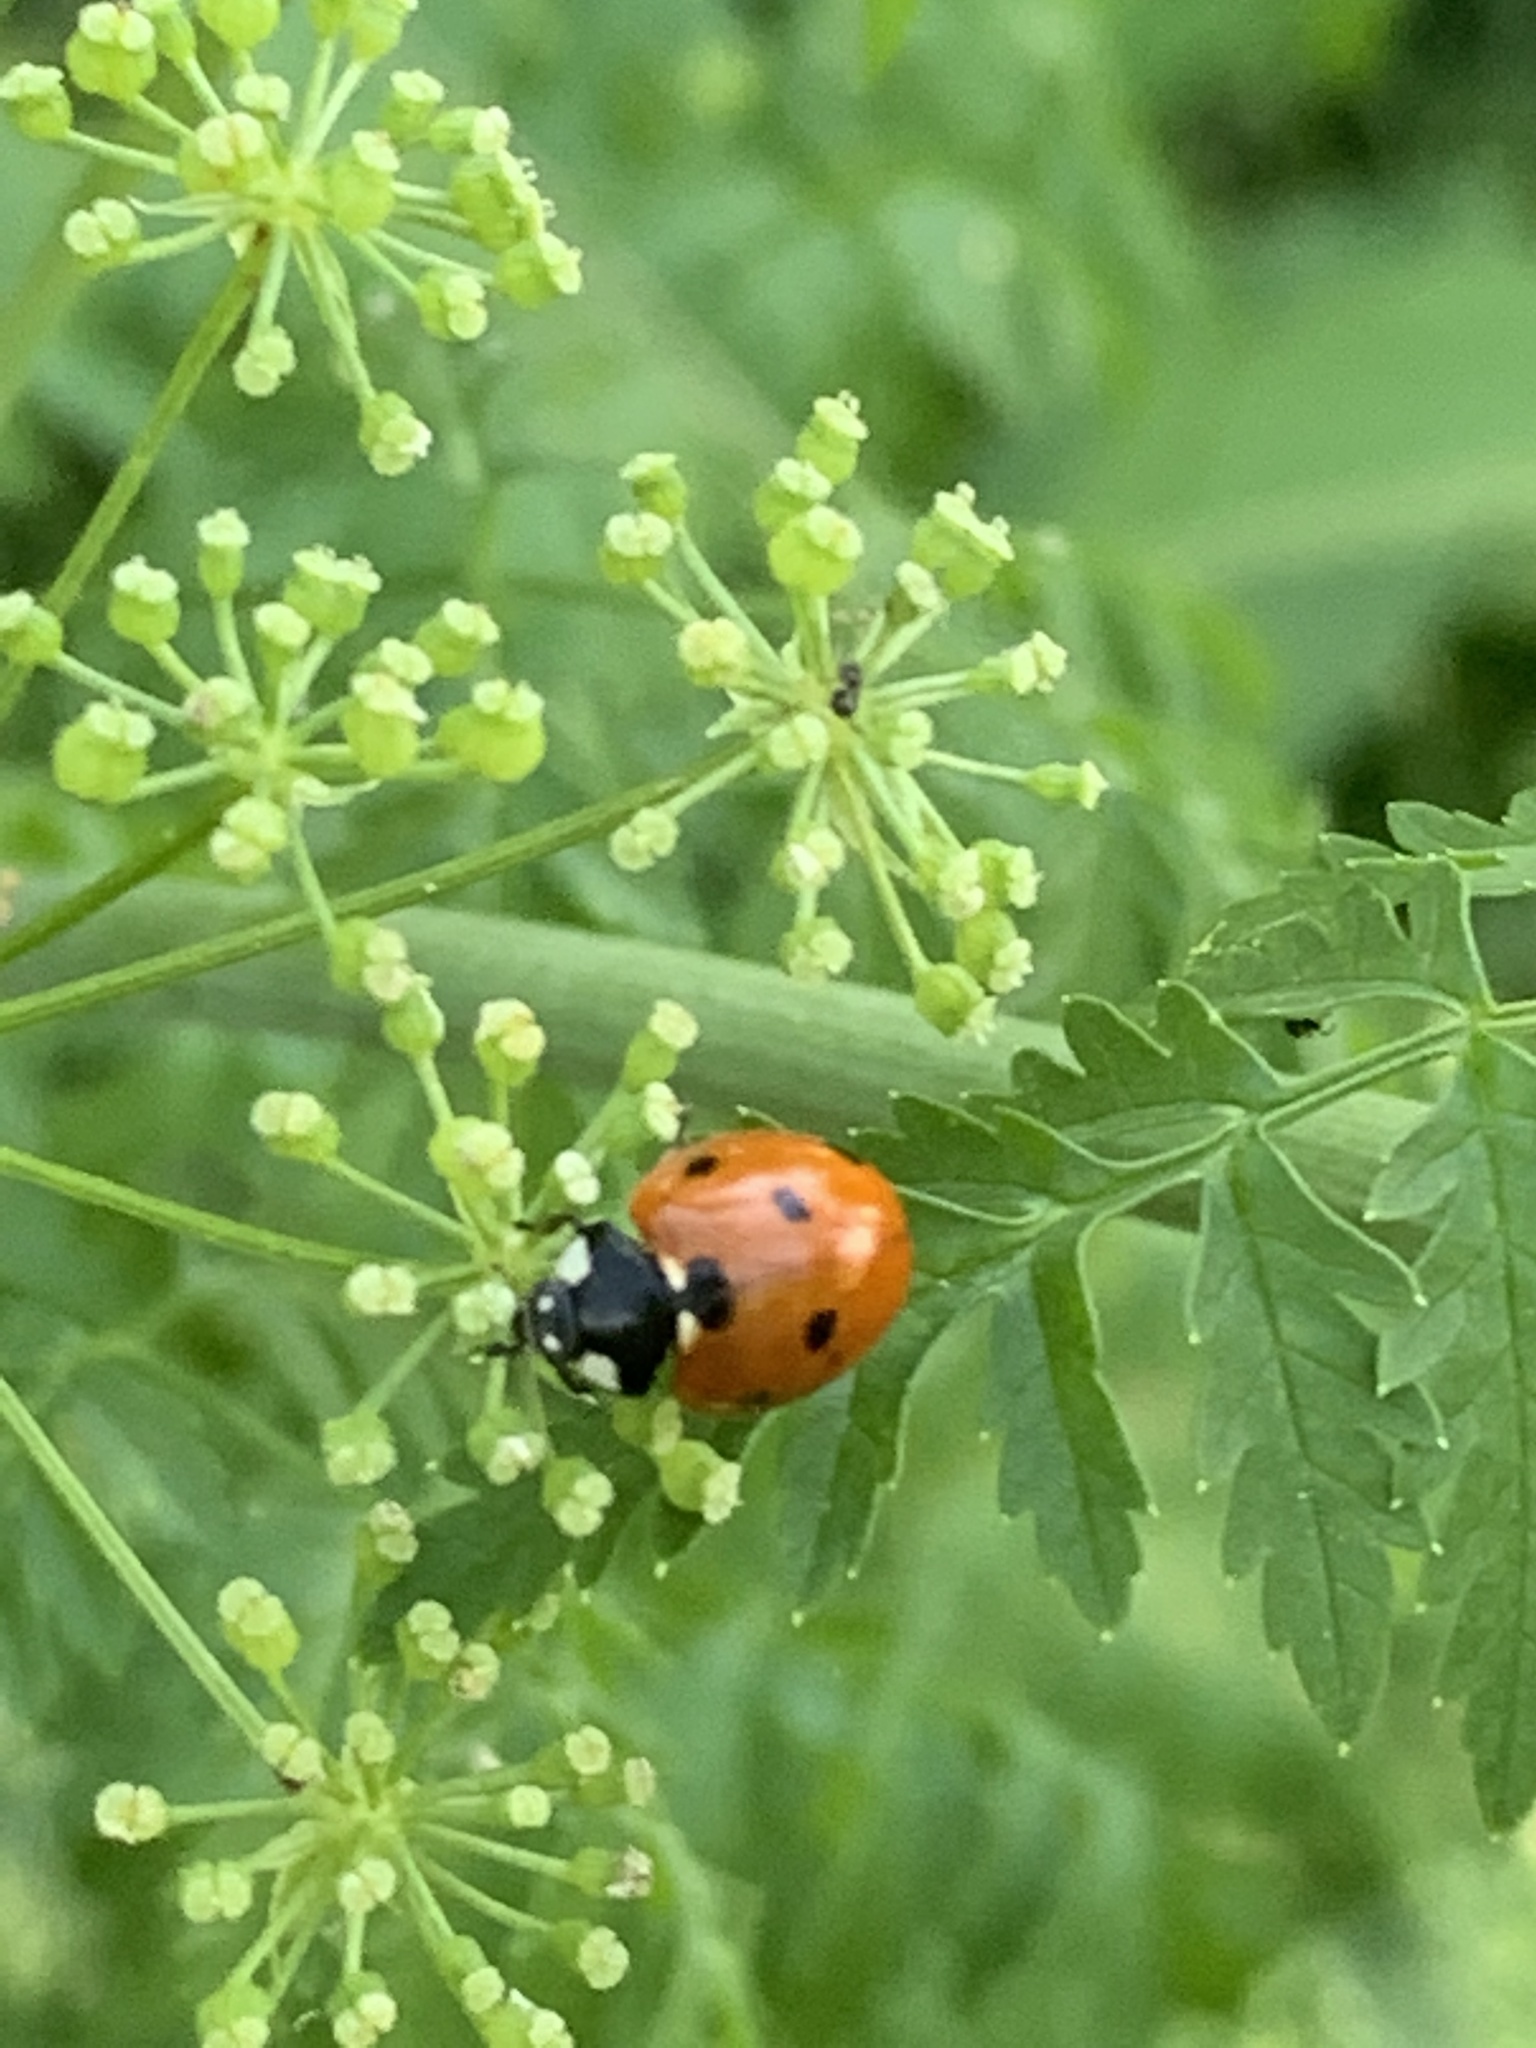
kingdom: Animalia
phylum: Arthropoda
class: Insecta
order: Coleoptera
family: Coccinellidae
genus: Coccinella
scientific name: Coccinella septempunctata
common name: Sevenspotted lady beetle
